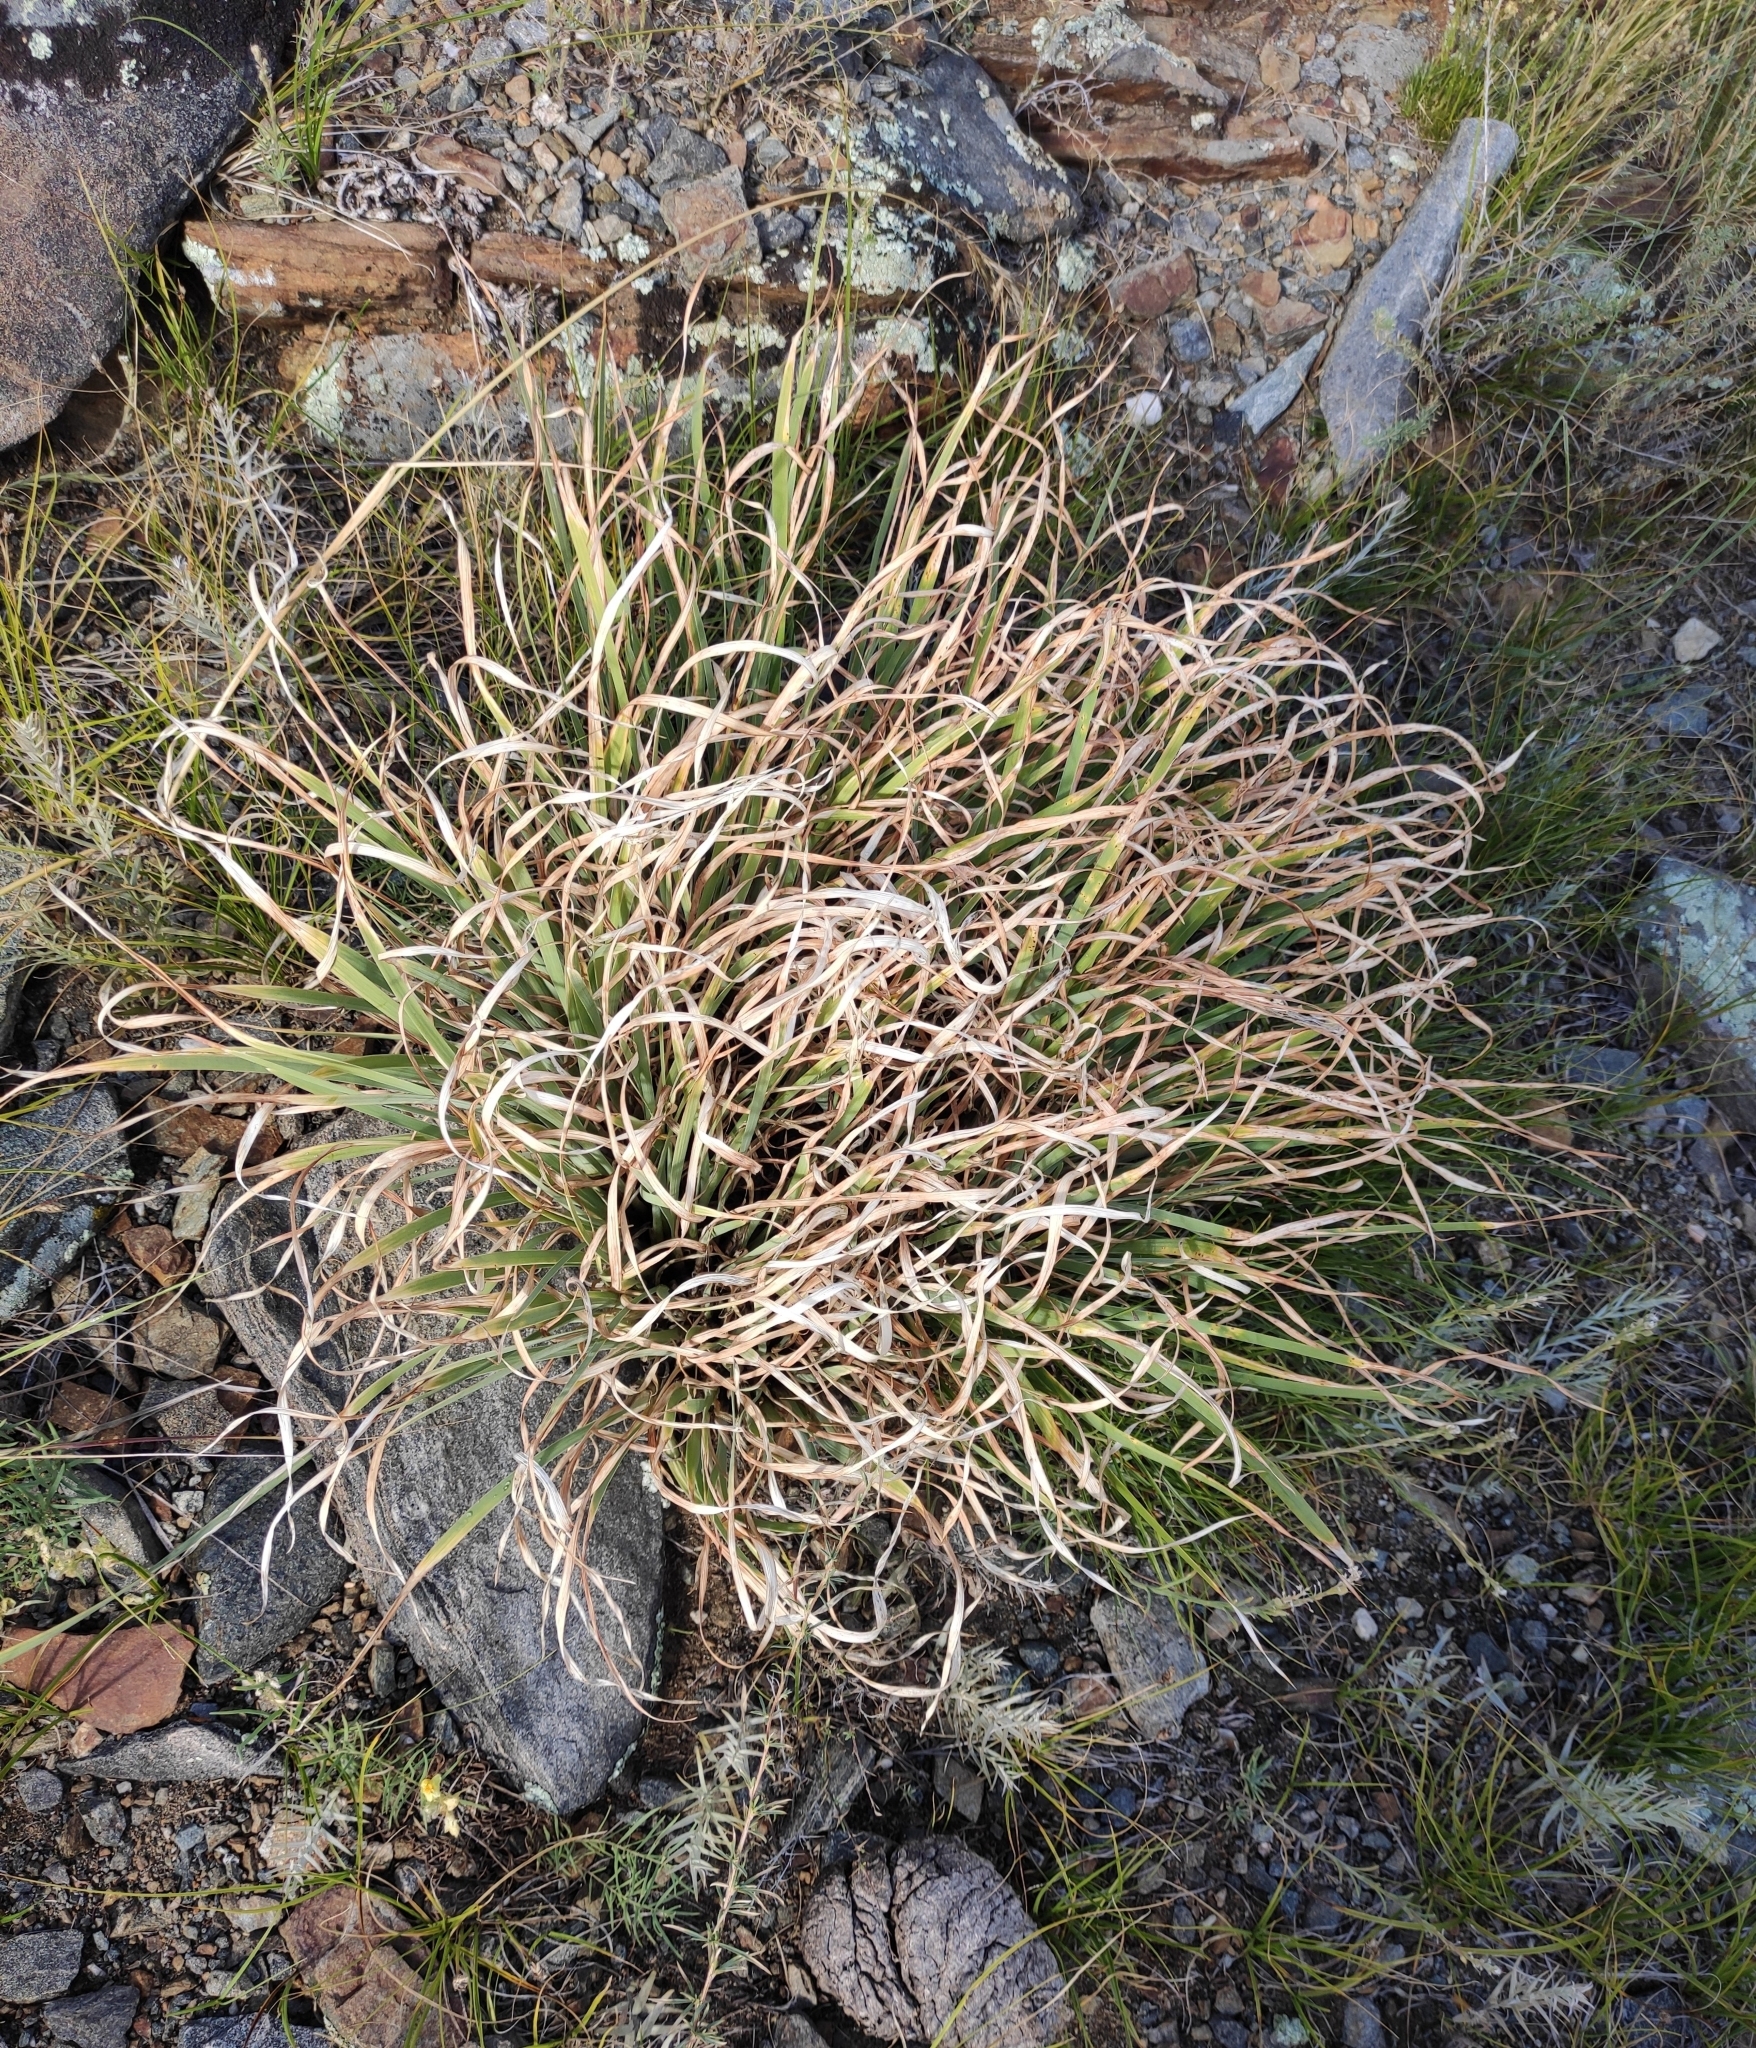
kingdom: Plantae
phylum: Tracheophyta
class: Liliopsida
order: Asparagales
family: Iridaceae
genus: Iris
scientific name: Iris potaninii
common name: Curl-sheath iris
